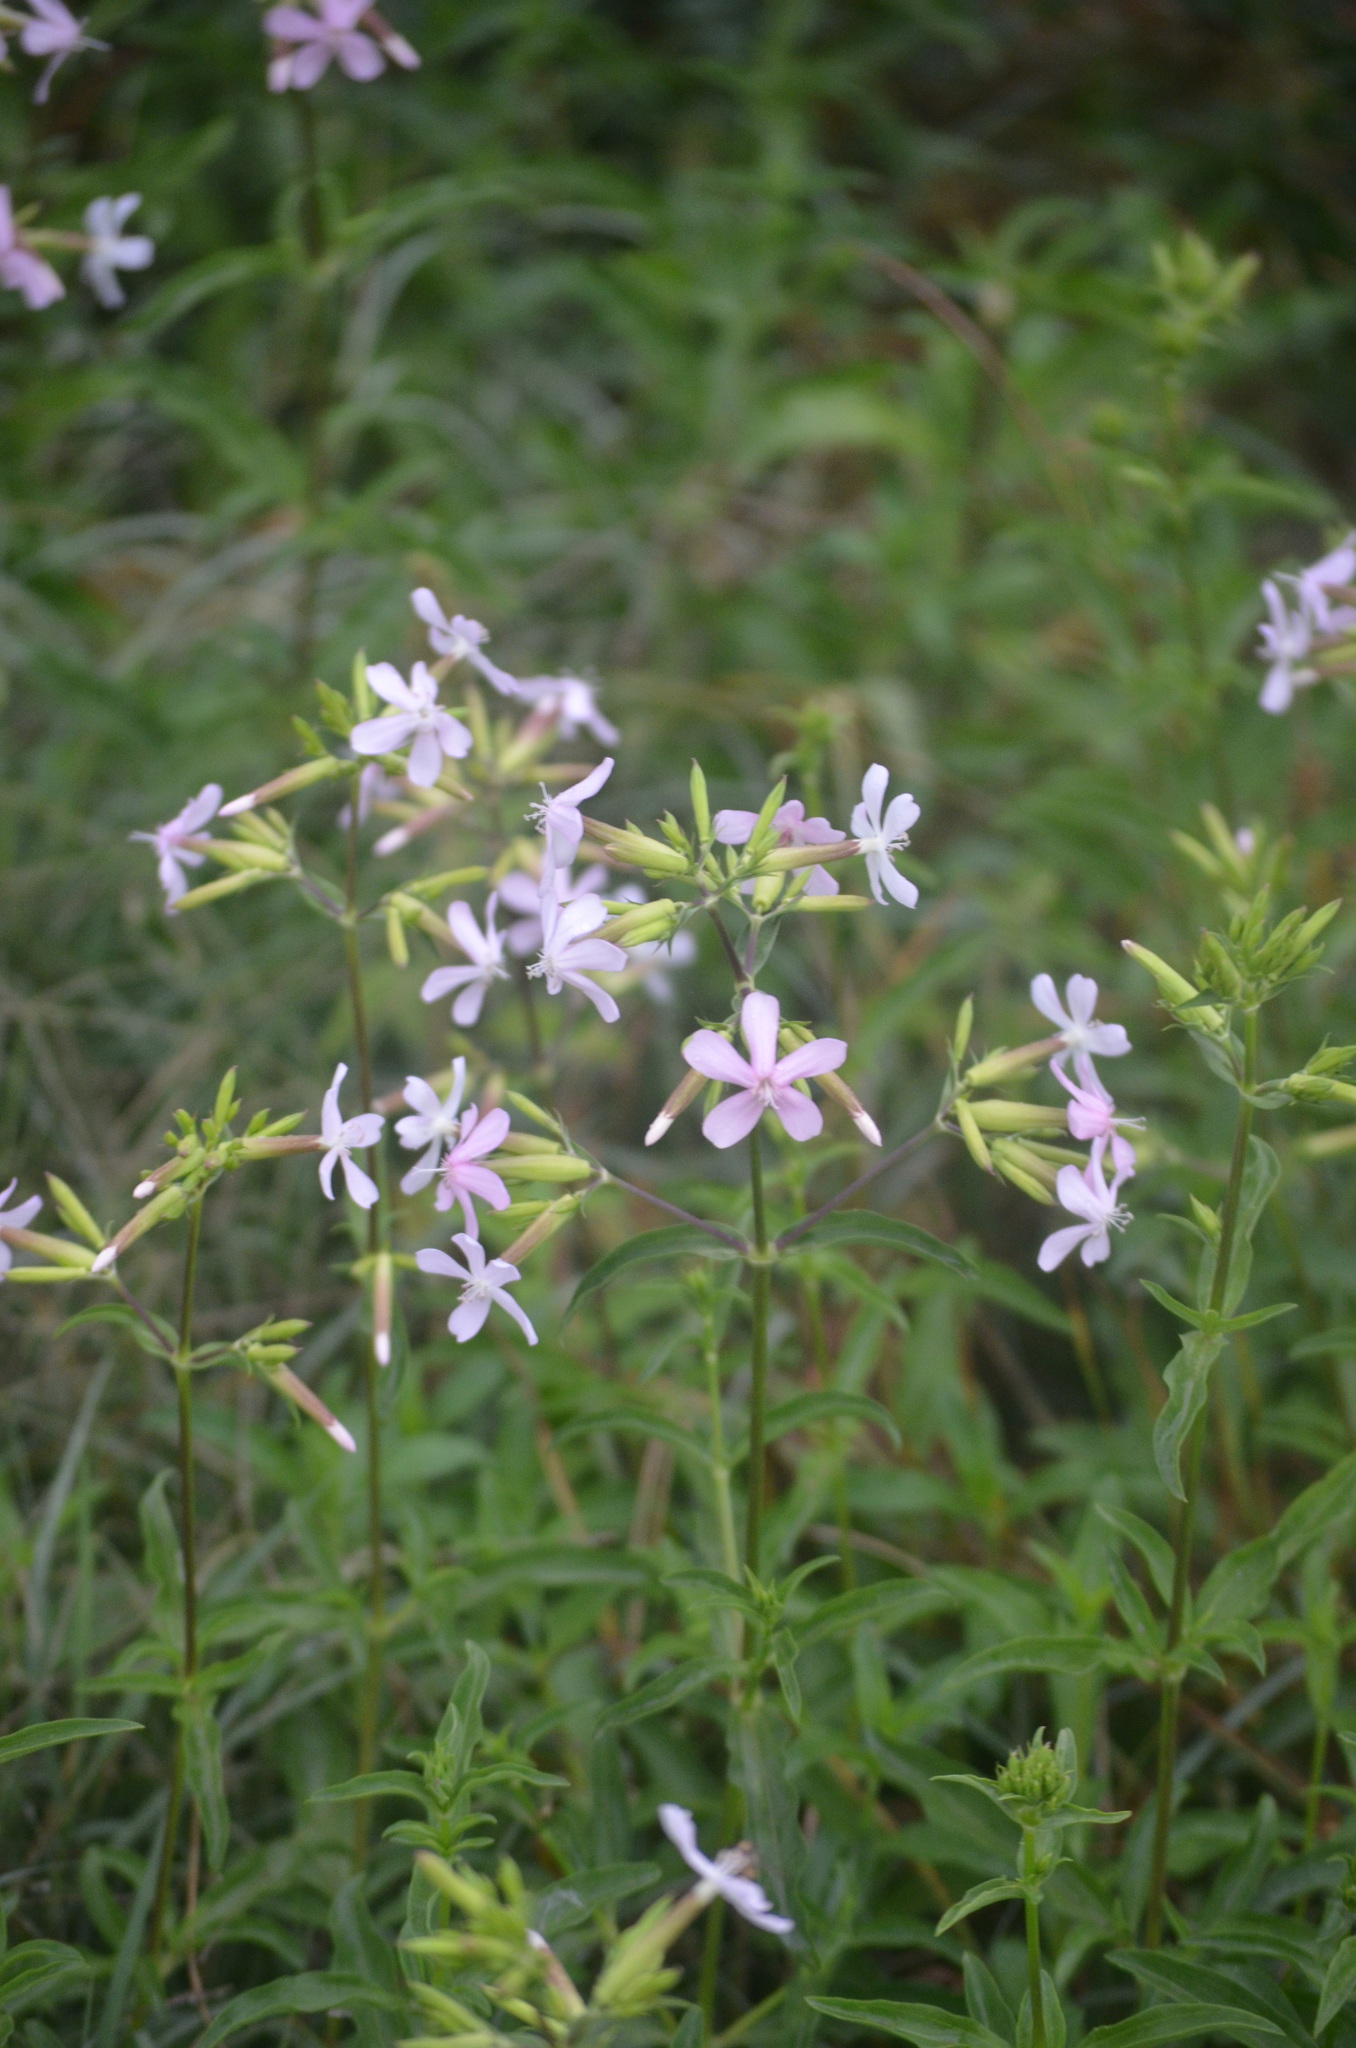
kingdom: Plantae
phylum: Tracheophyta
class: Magnoliopsida
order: Caryophyllales
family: Caryophyllaceae
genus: Saponaria
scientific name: Saponaria officinalis
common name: Soapwort
